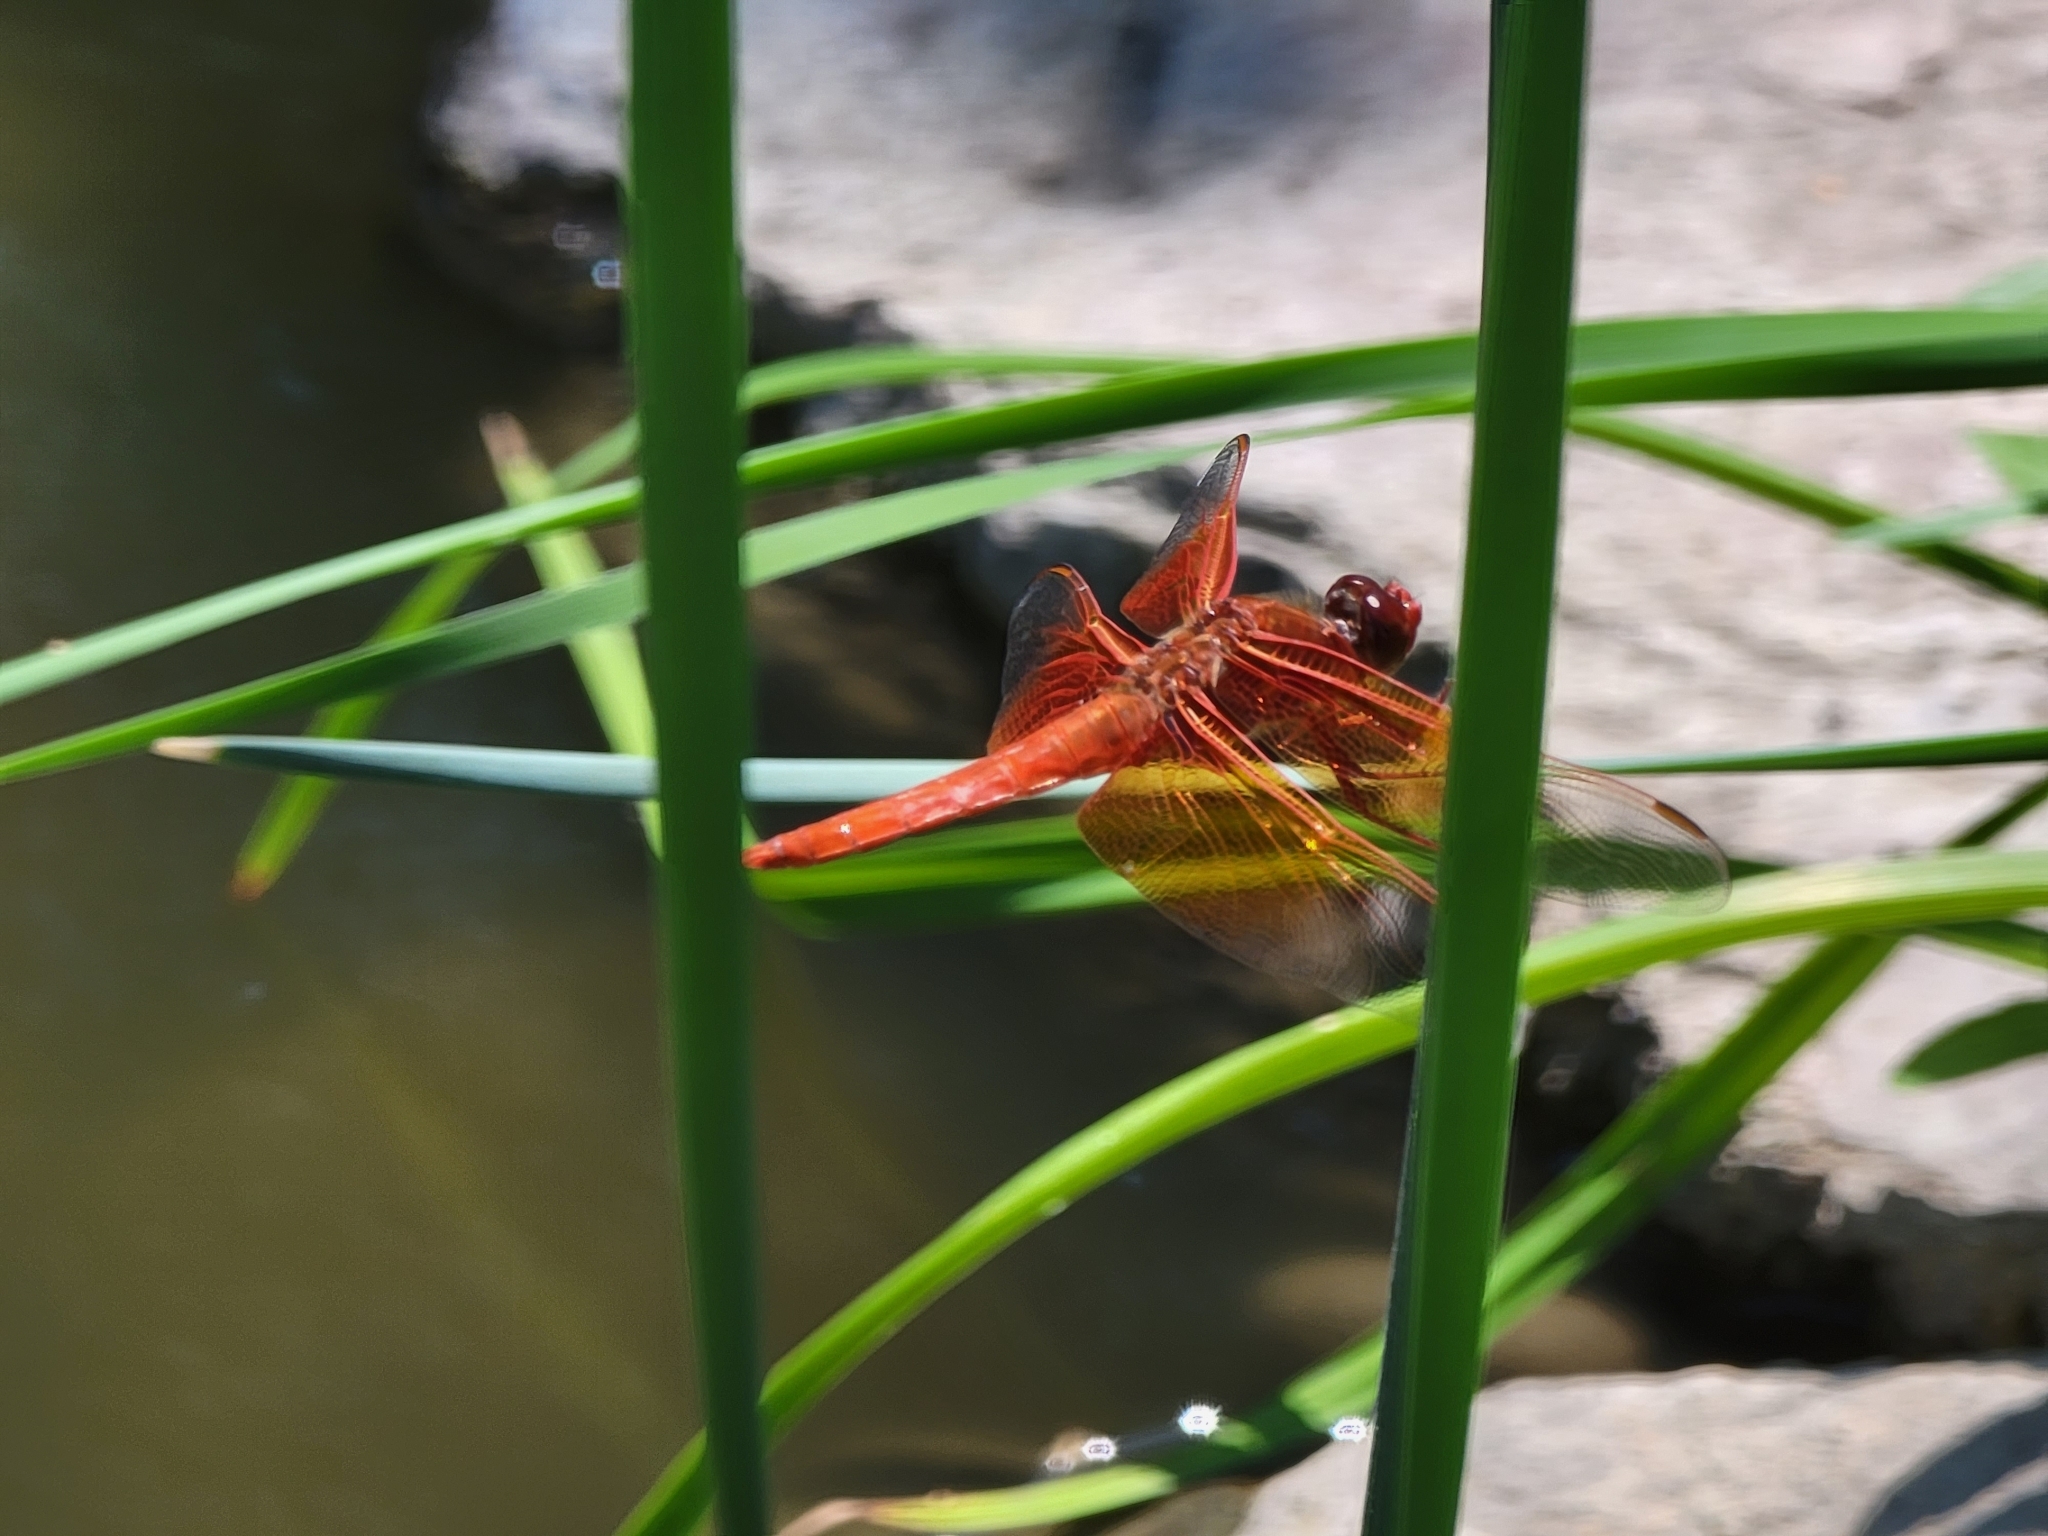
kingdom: Animalia
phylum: Arthropoda
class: Insecta
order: Odonata
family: Libellulidae
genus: Libellula
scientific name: Libellula saturata
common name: Flame skimmer
